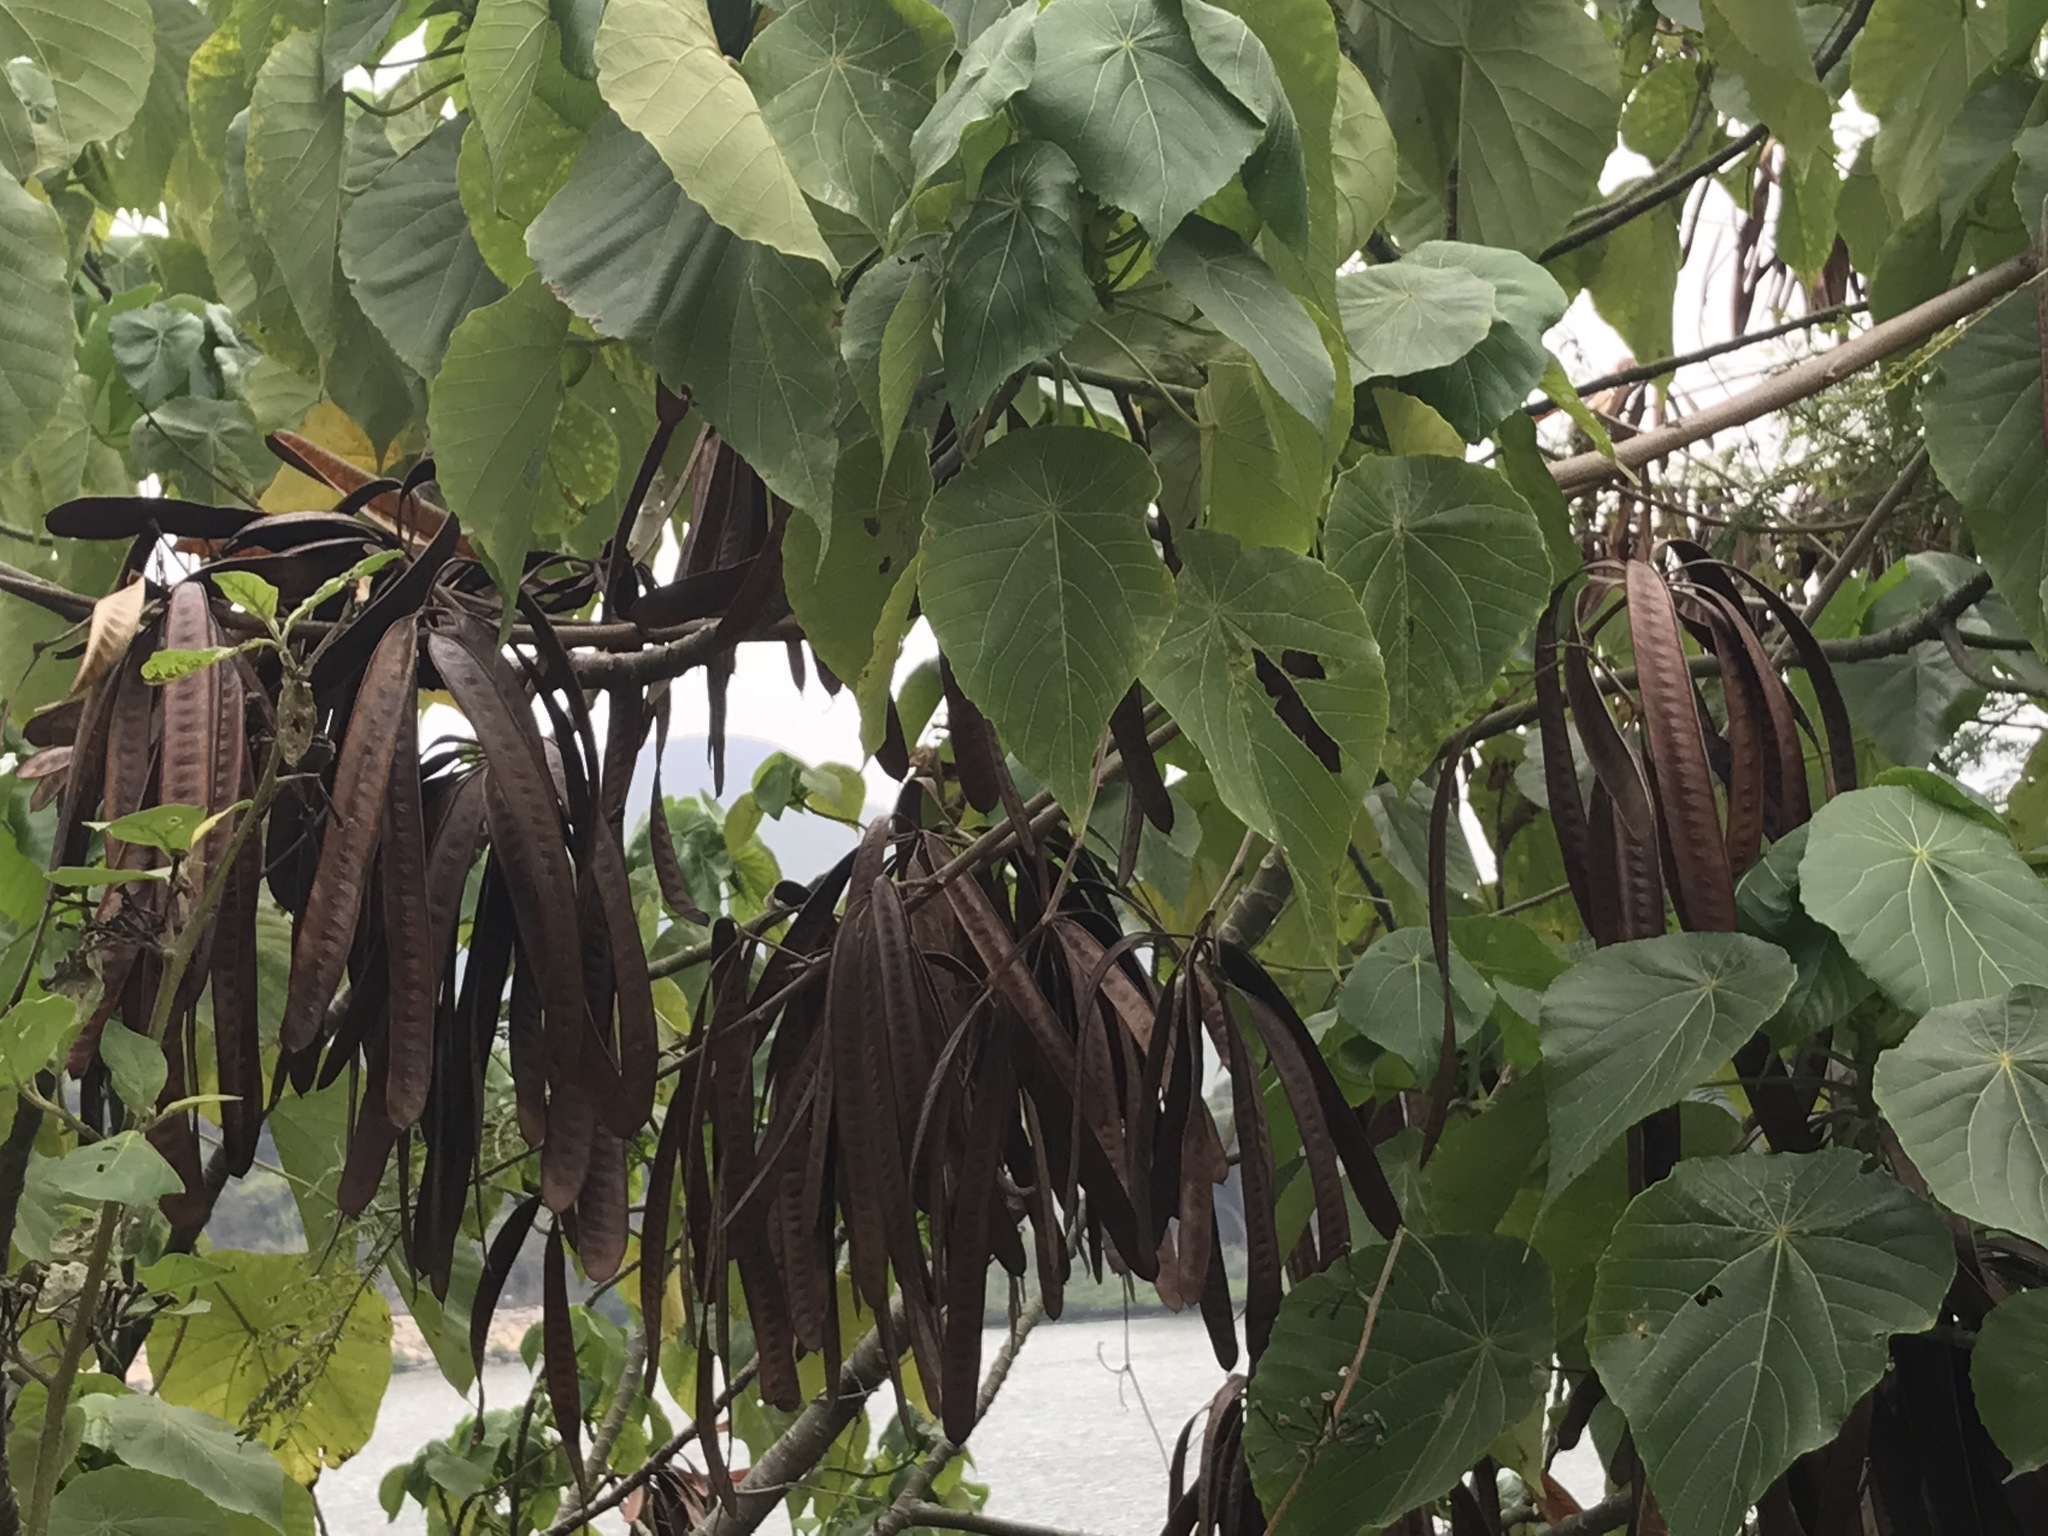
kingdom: Plantae
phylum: Tracheophyta
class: Magnoliopsida
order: Malpighiales
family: Euphorbiaceae
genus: Macaranga
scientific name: Macaranga tanarius
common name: Parasol leaf tree
